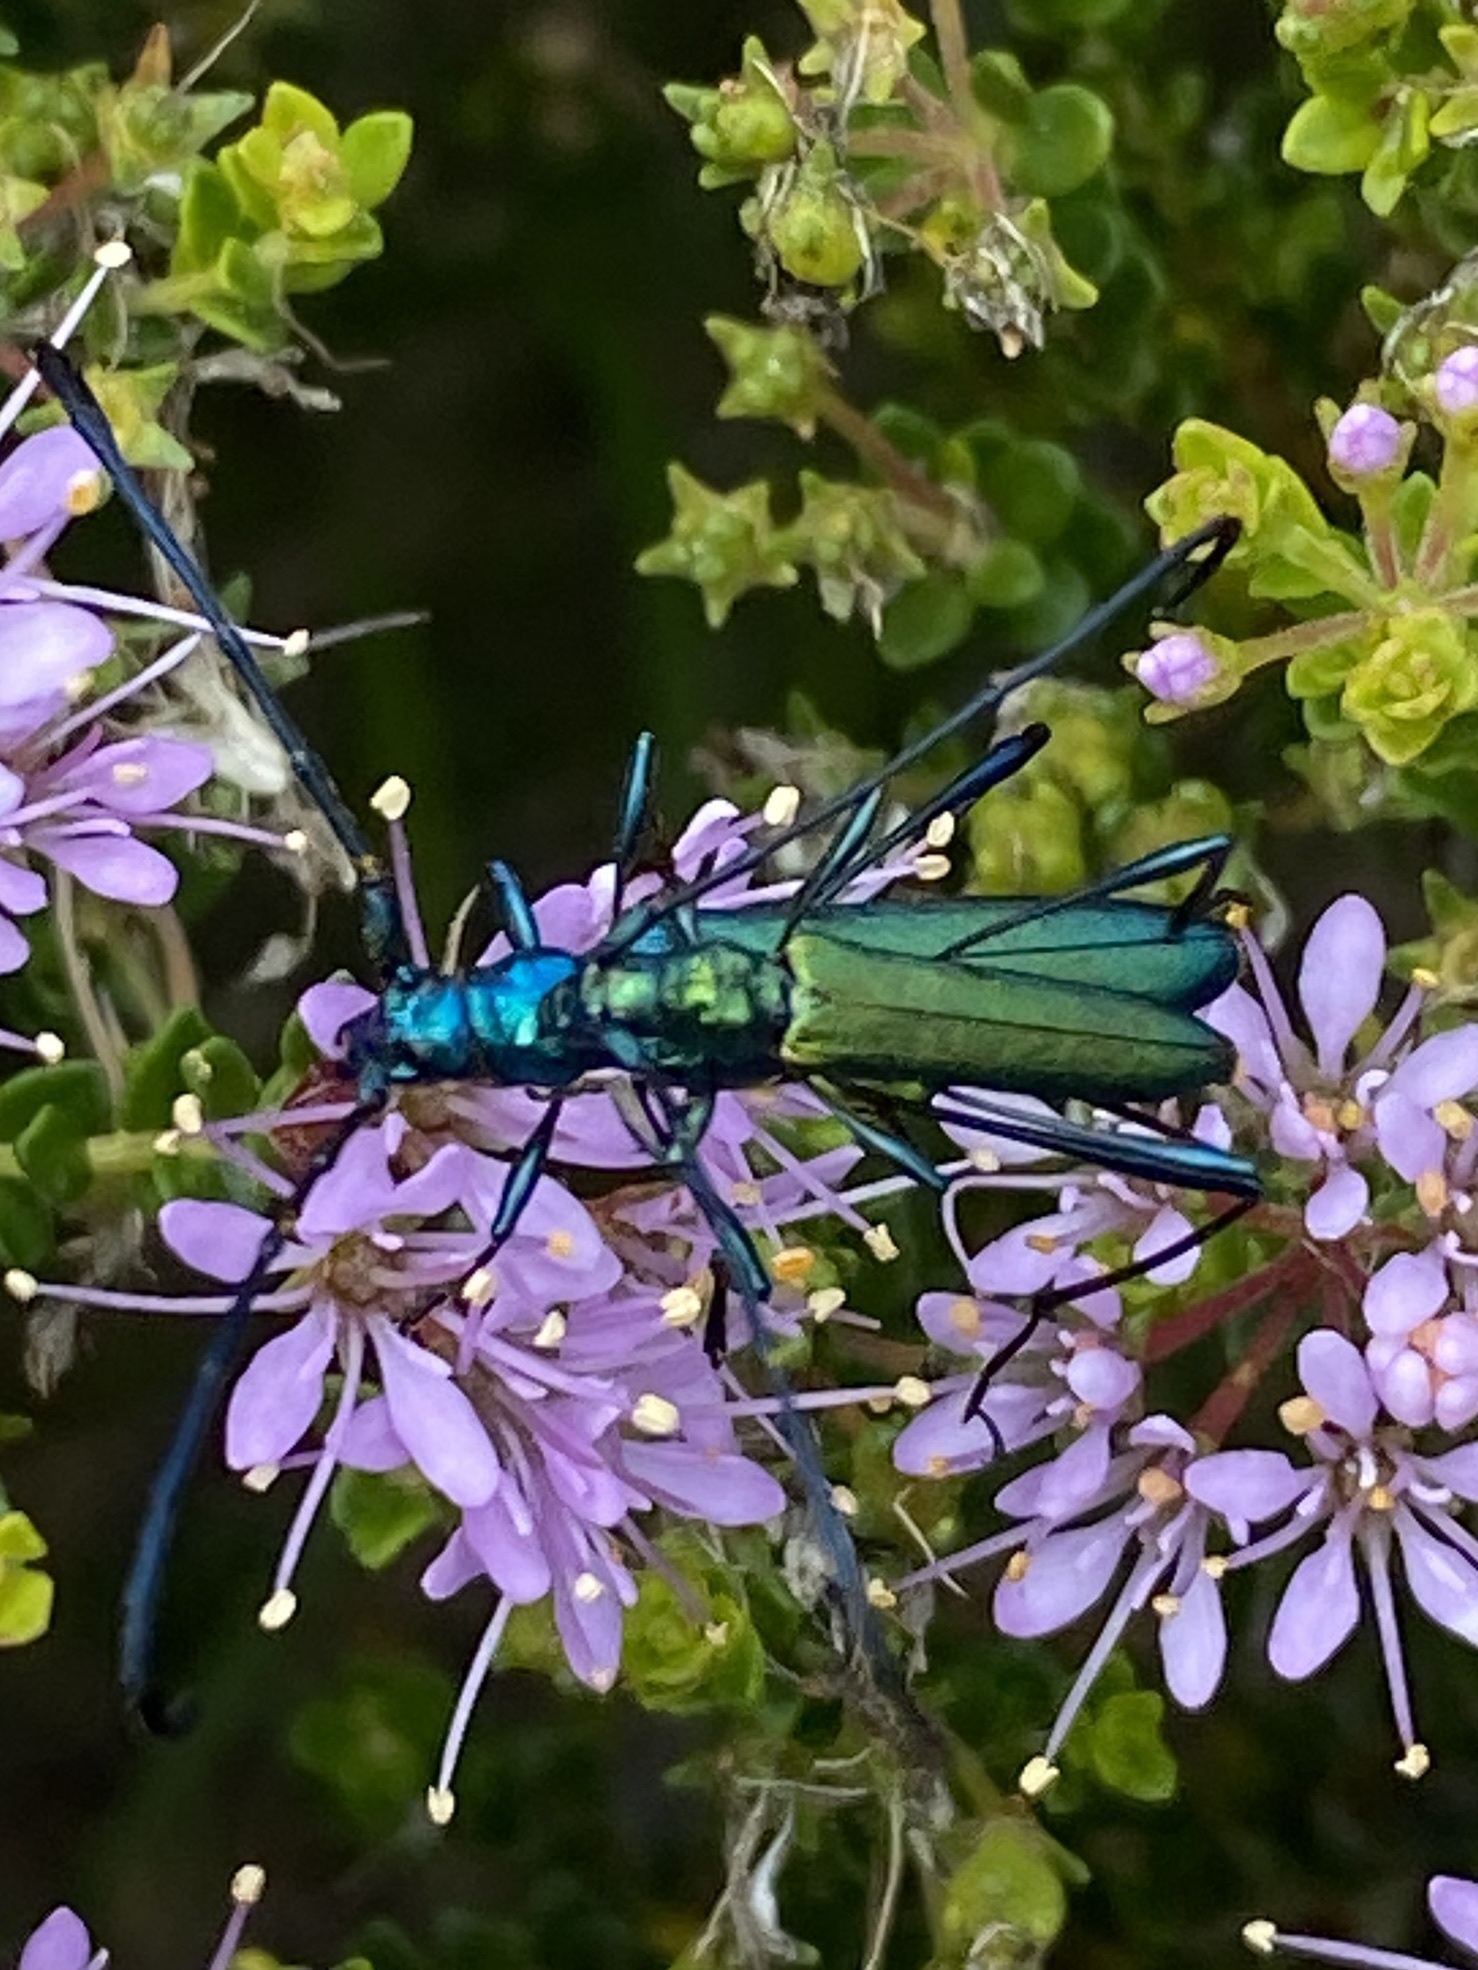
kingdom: Animalia
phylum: Arthropoda
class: Insecta
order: Coleoptera
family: Cerambycidae
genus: Promeces
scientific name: Promeces longipes
